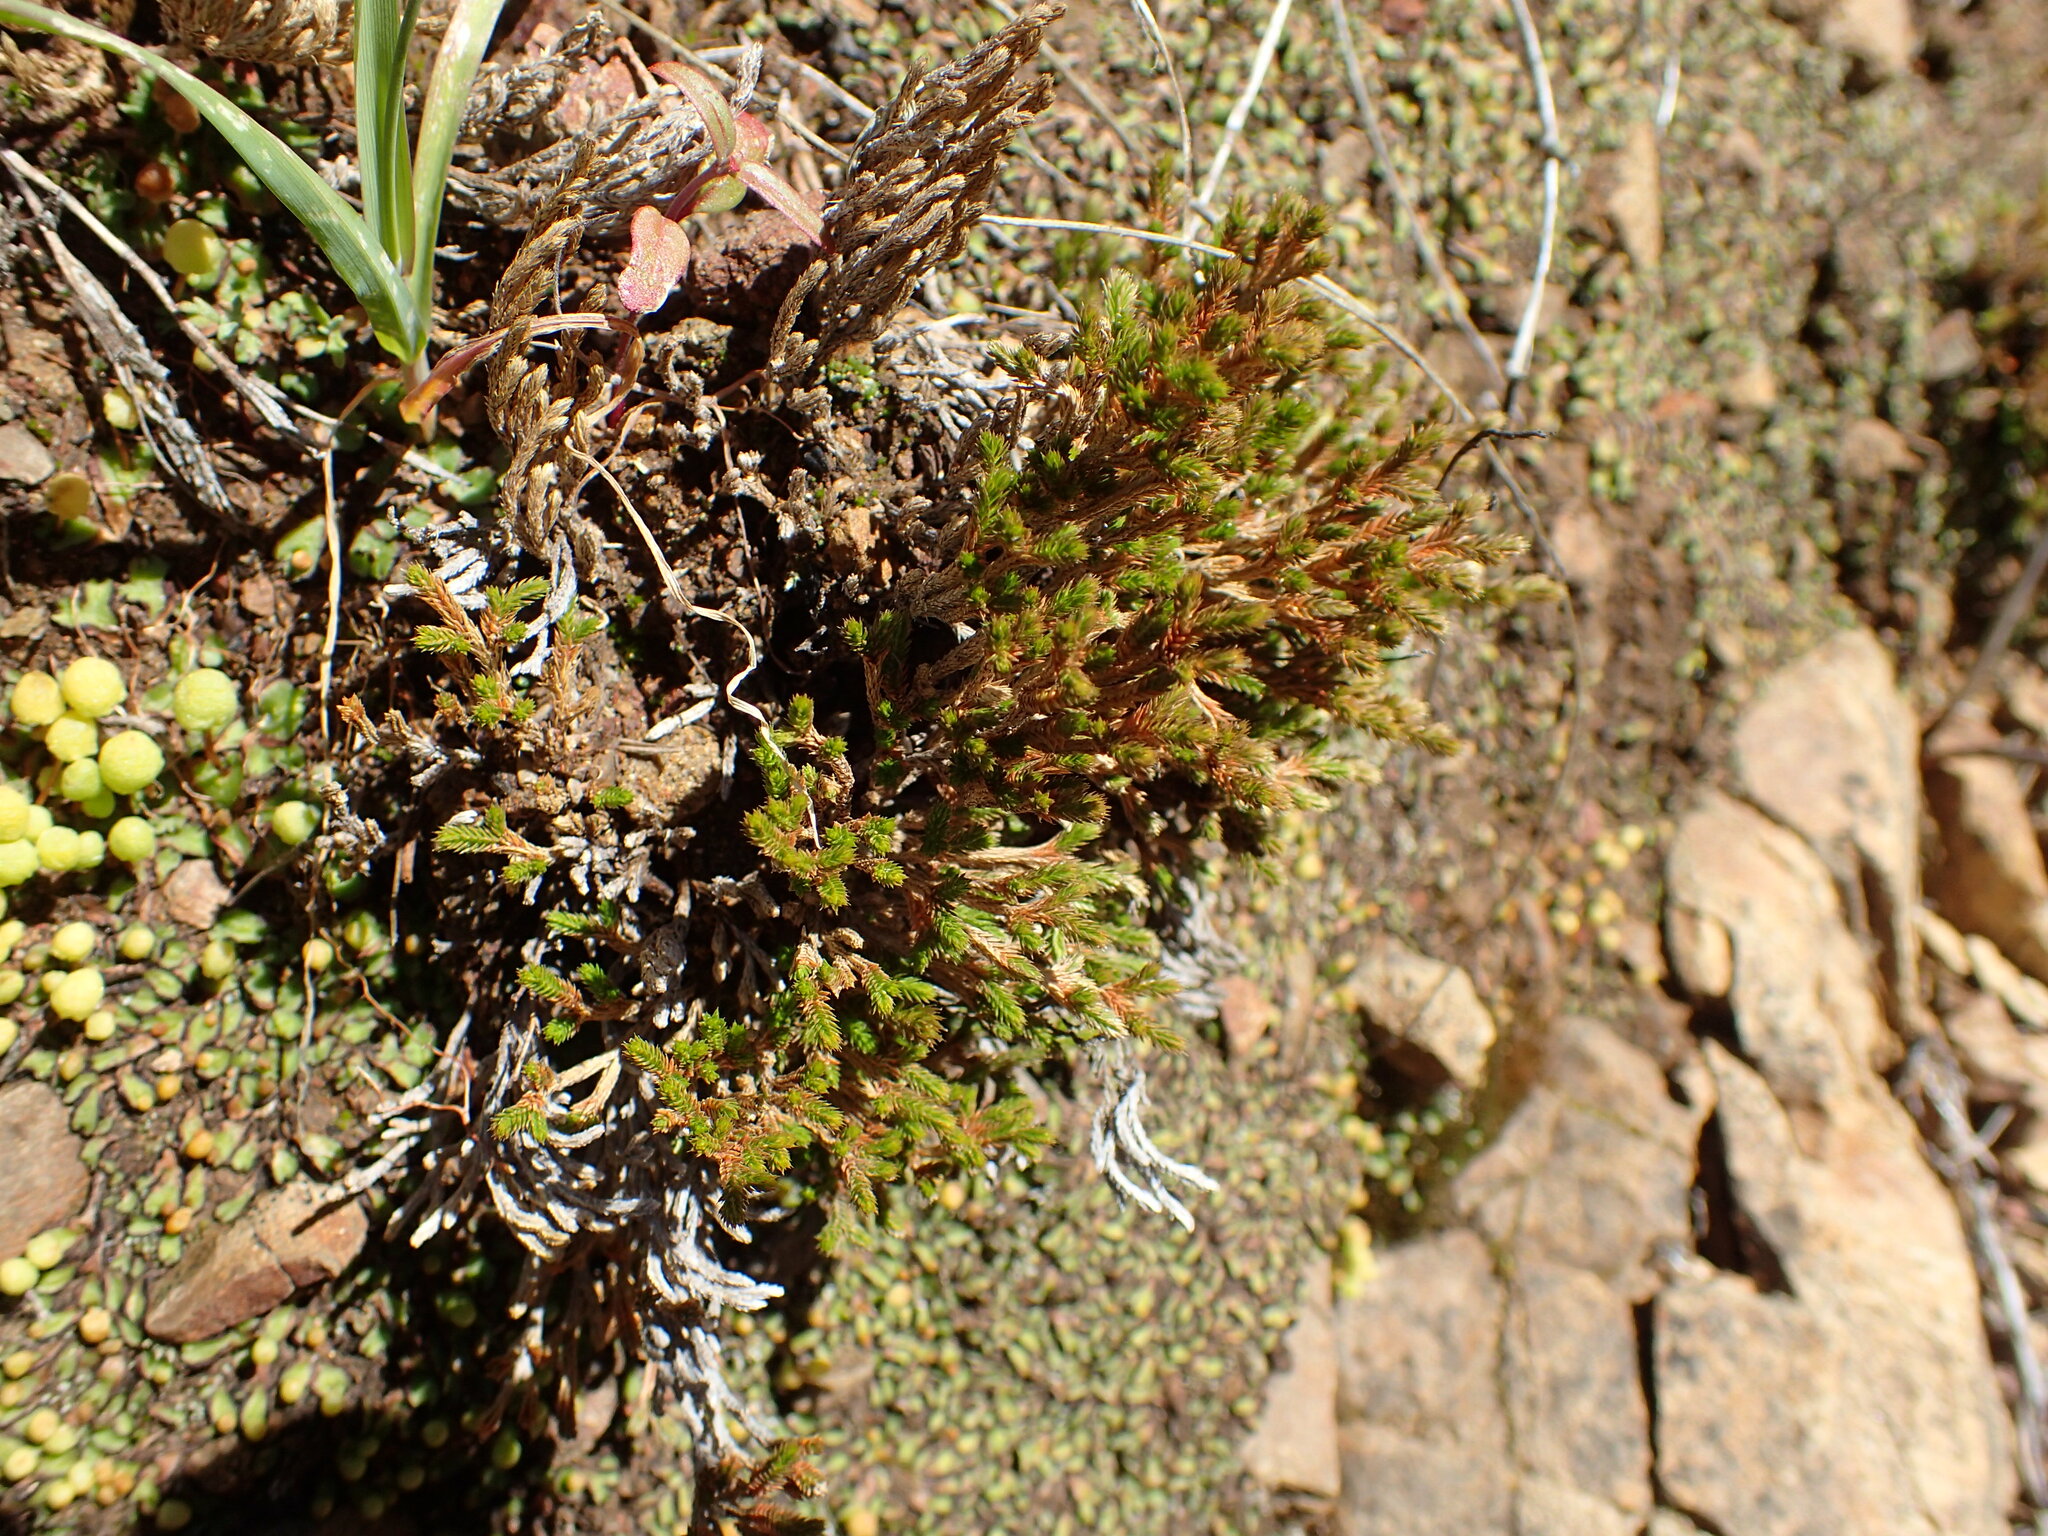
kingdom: Plantae
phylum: Tracheophyta
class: Lycopodiopsida
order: Selaginellales
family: Selaginellaceae
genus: Selaginella
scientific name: Selaginella bigelovii
